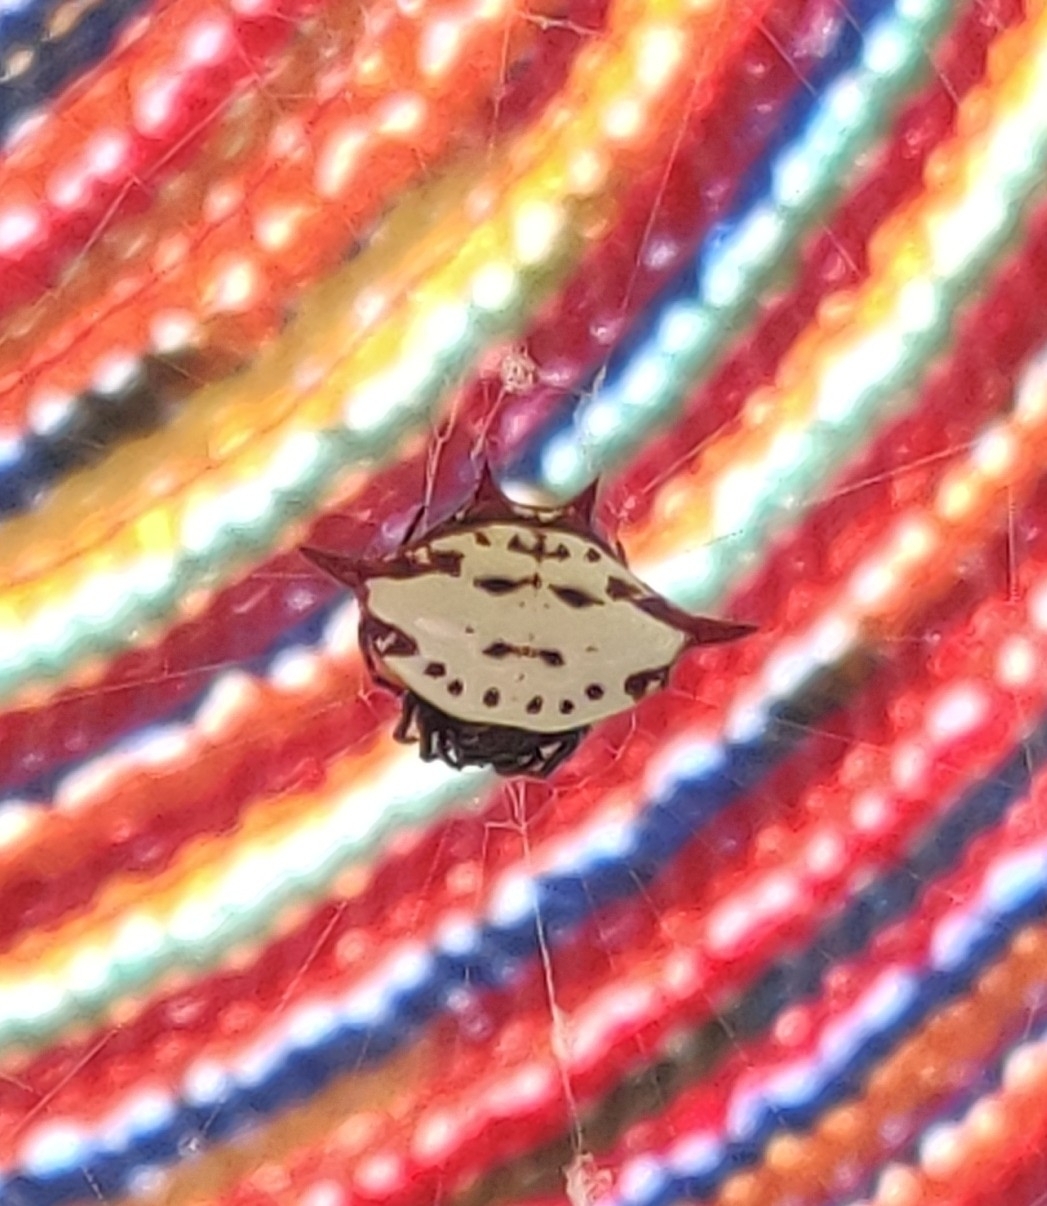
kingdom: Animalia
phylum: Arthropoda
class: Arachnida
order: Araneae
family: Araneidae
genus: Gasteracantha
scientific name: Gasteracantha cancriformis
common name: Orb weavers
